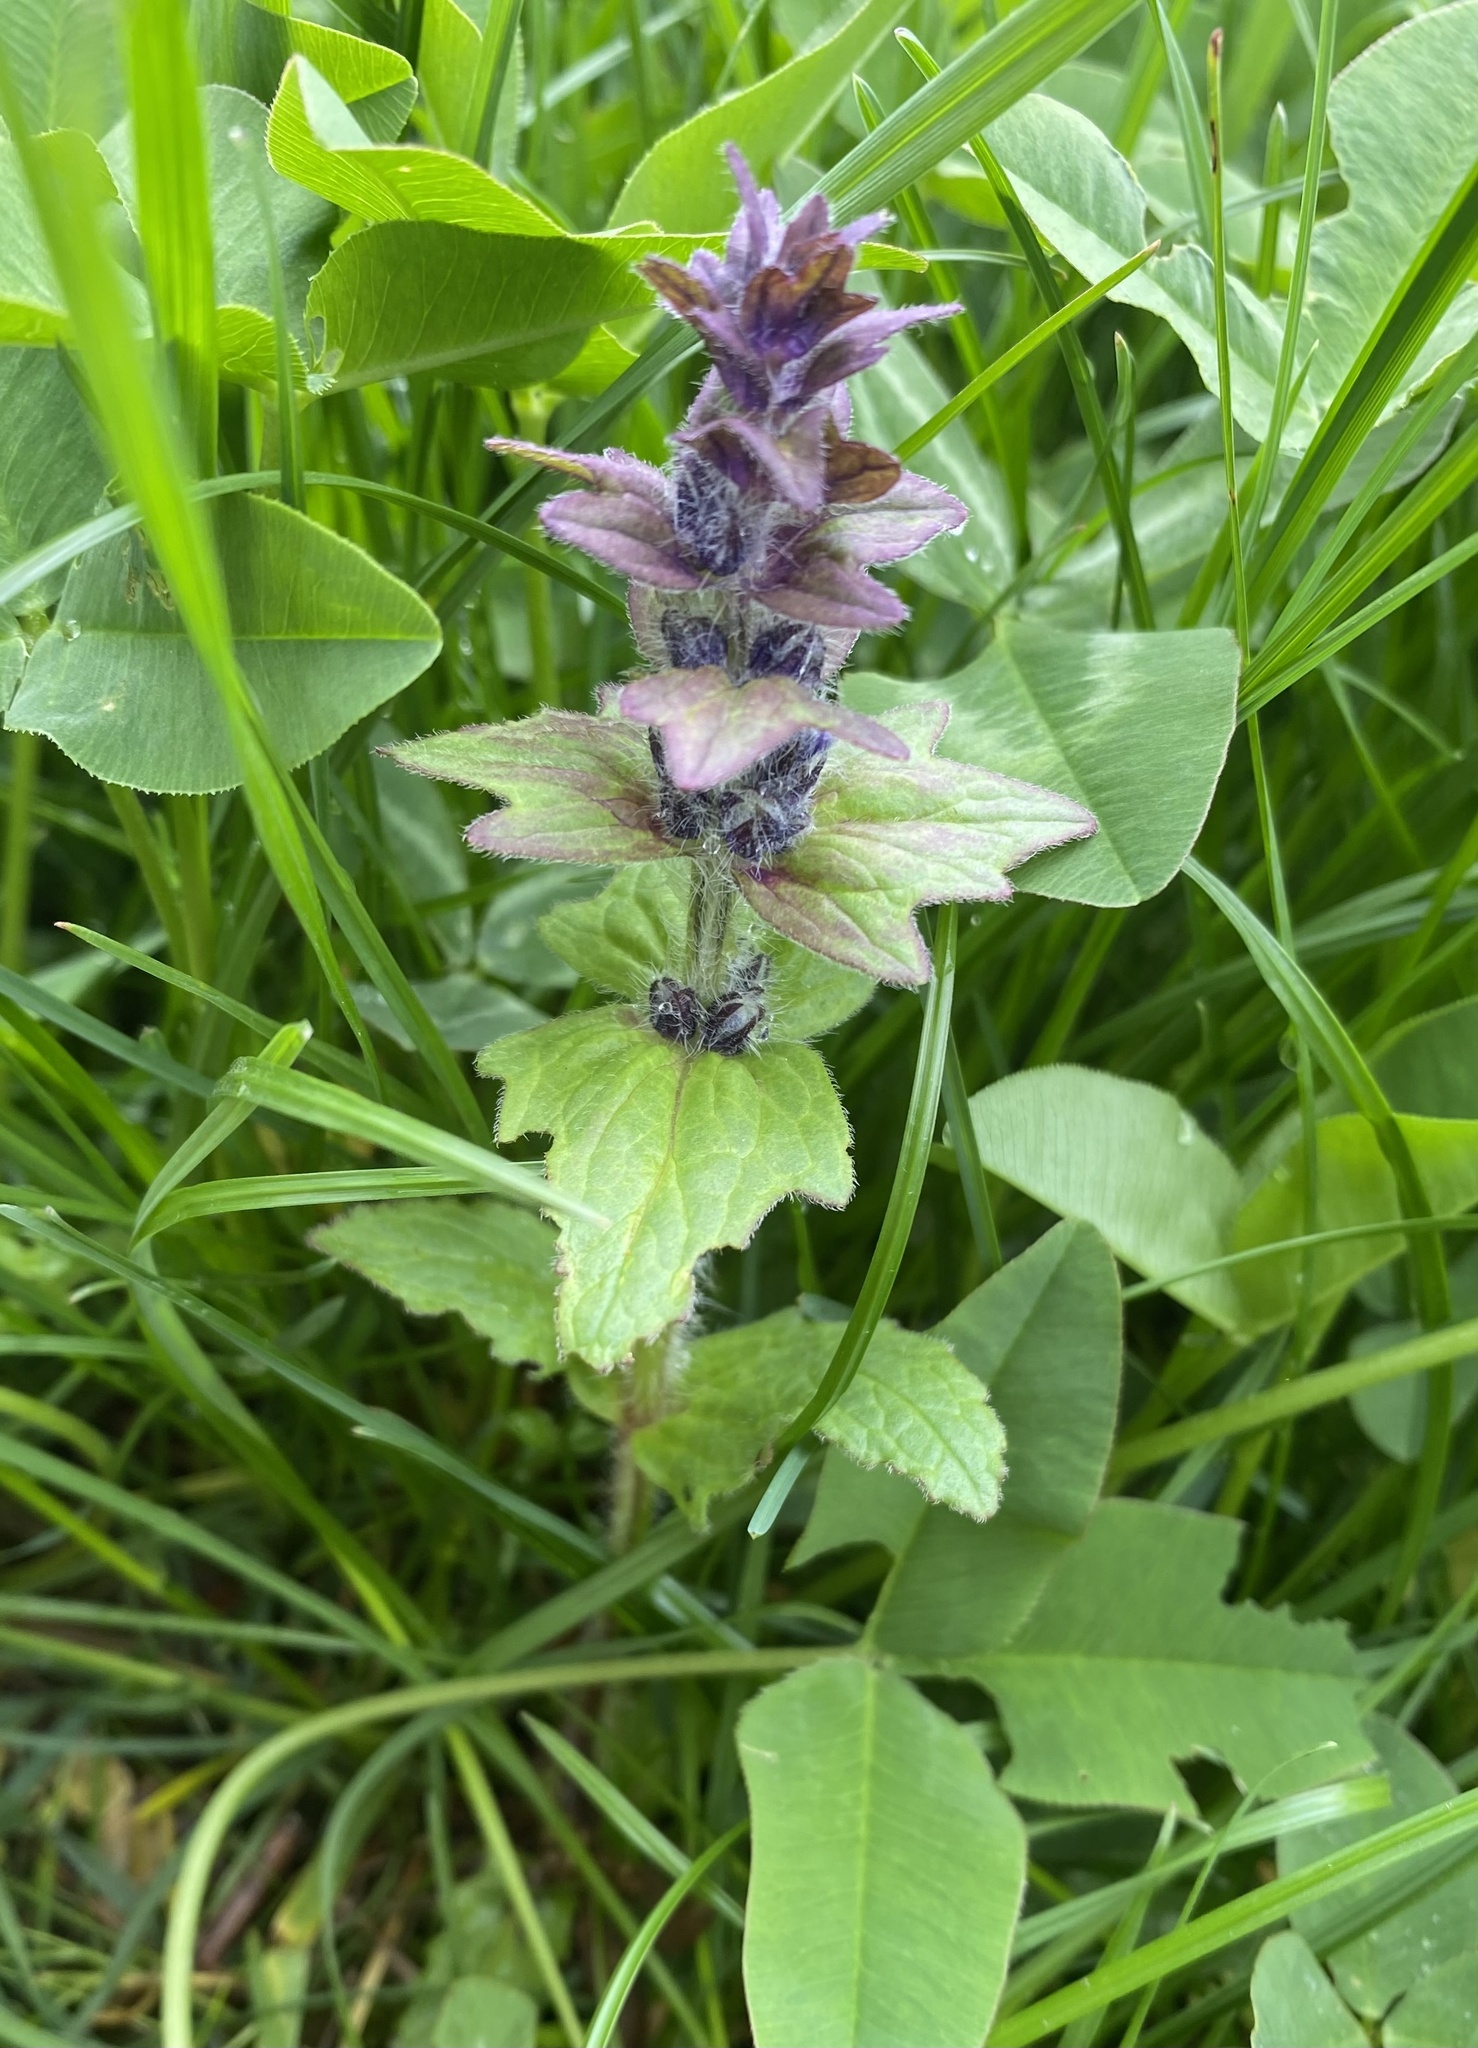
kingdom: Plantae
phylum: Tracheophyta
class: Magnoliopsida
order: Lamiales
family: Lamiaceae
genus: Ajuga
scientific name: Ajuga genevensis
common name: Blue bugle
